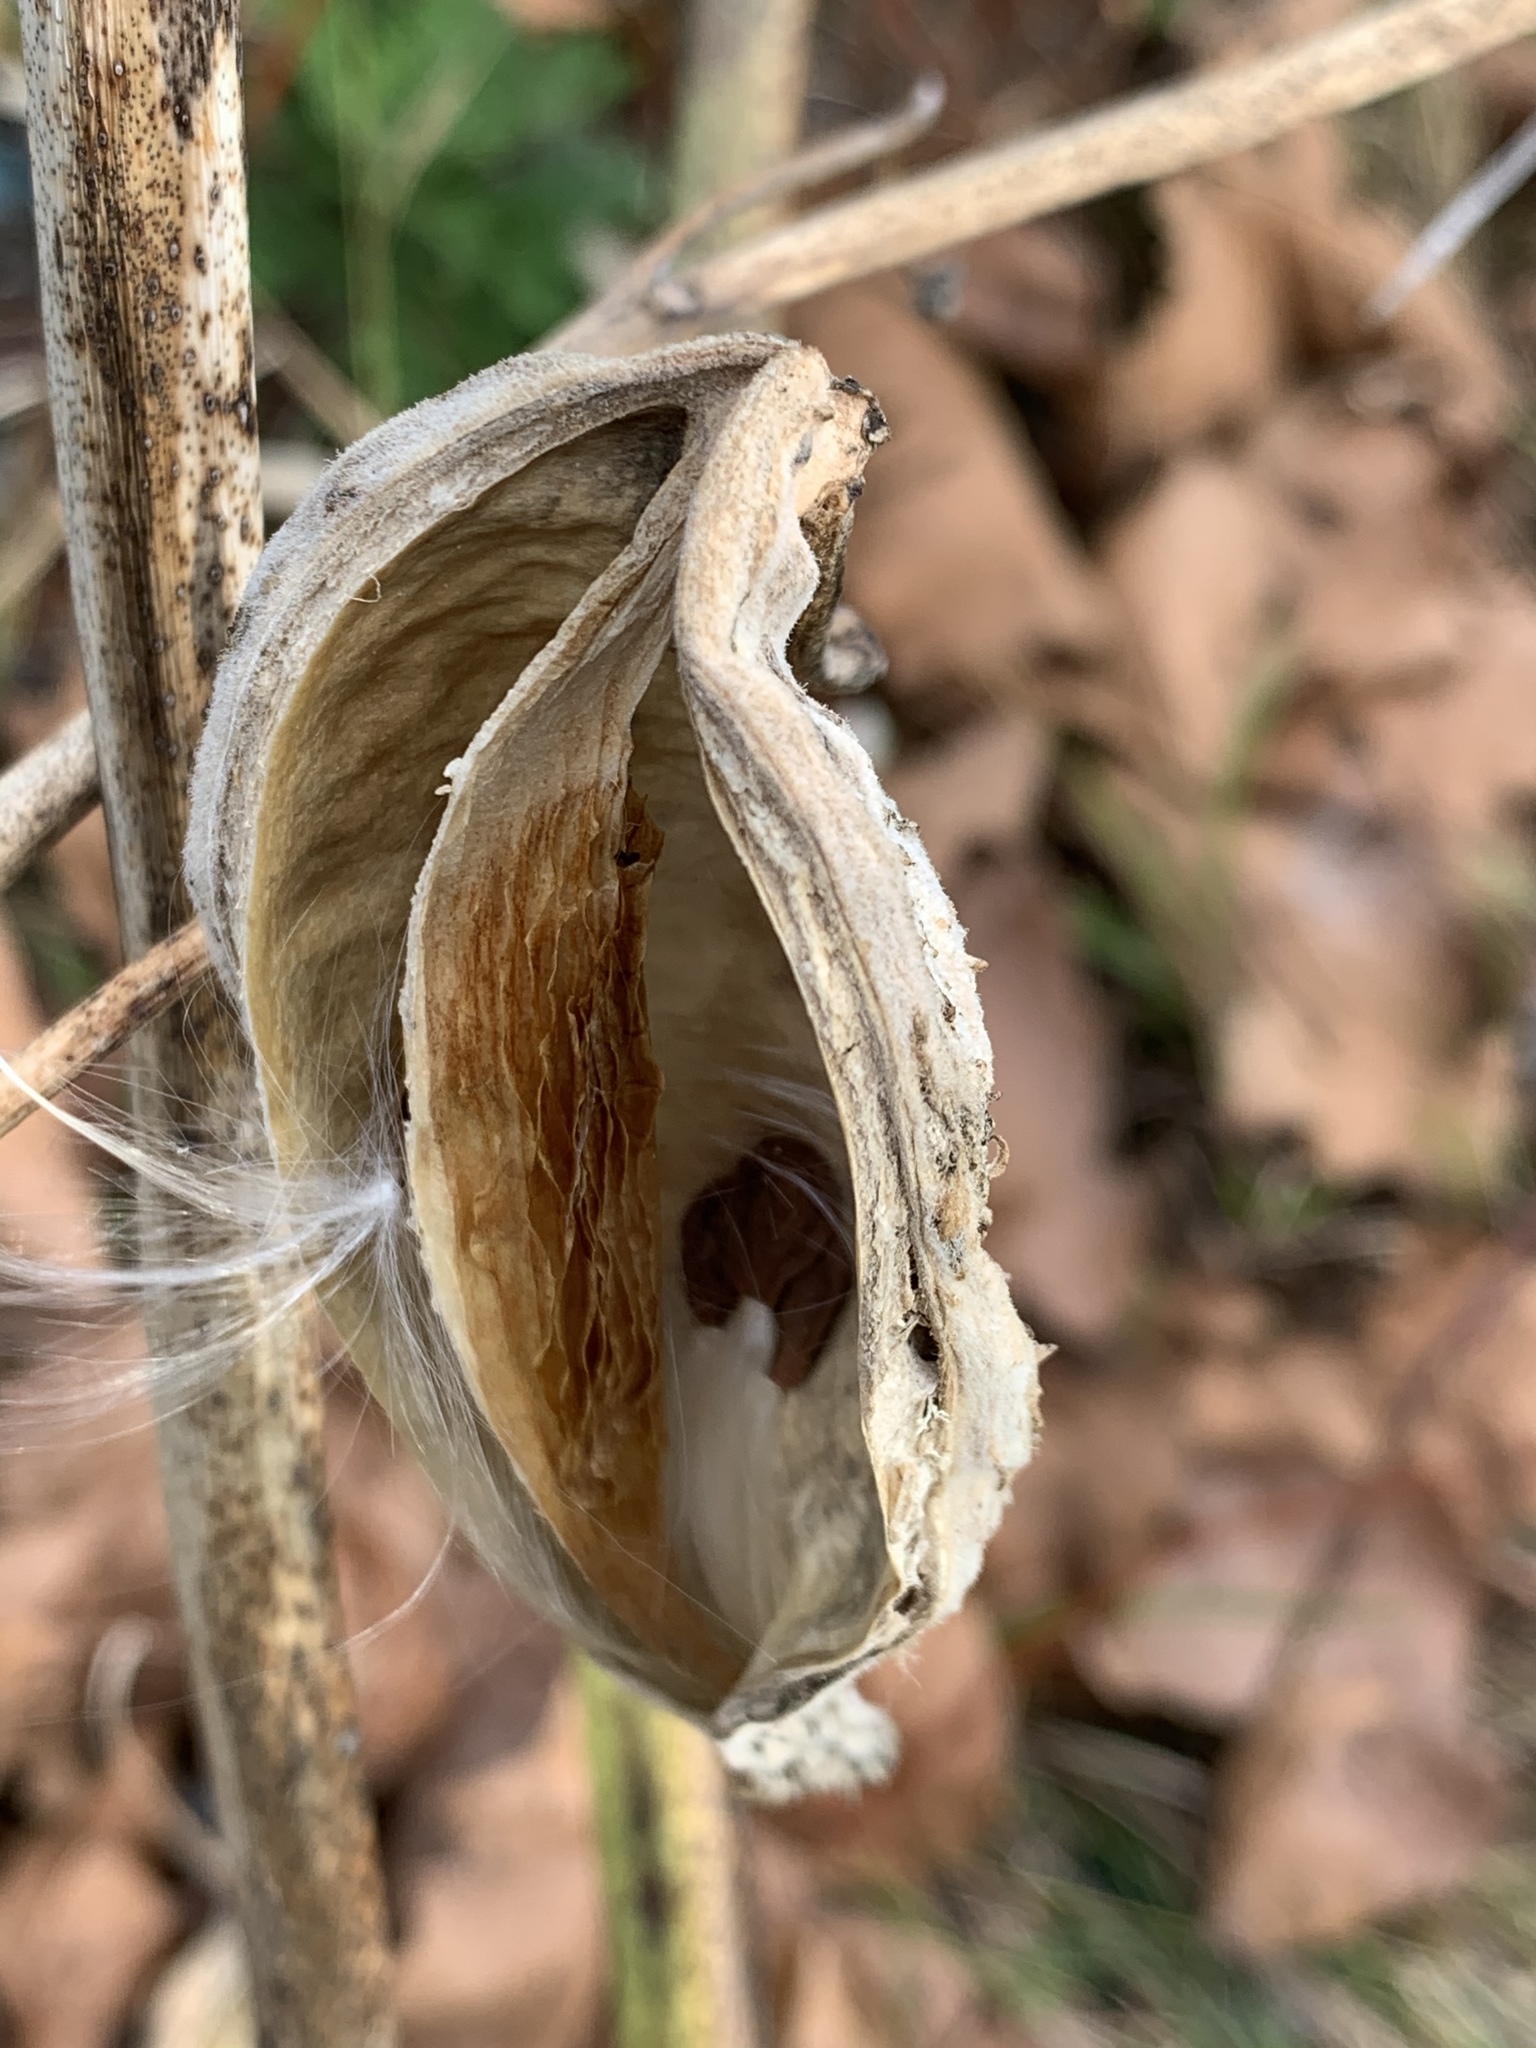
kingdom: Plantae
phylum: Tracheophyta
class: Magnoliopsida
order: Gentianales
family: Apocynaceae
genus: Asclepias
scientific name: Asclepias syriaca
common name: Common milkweed
